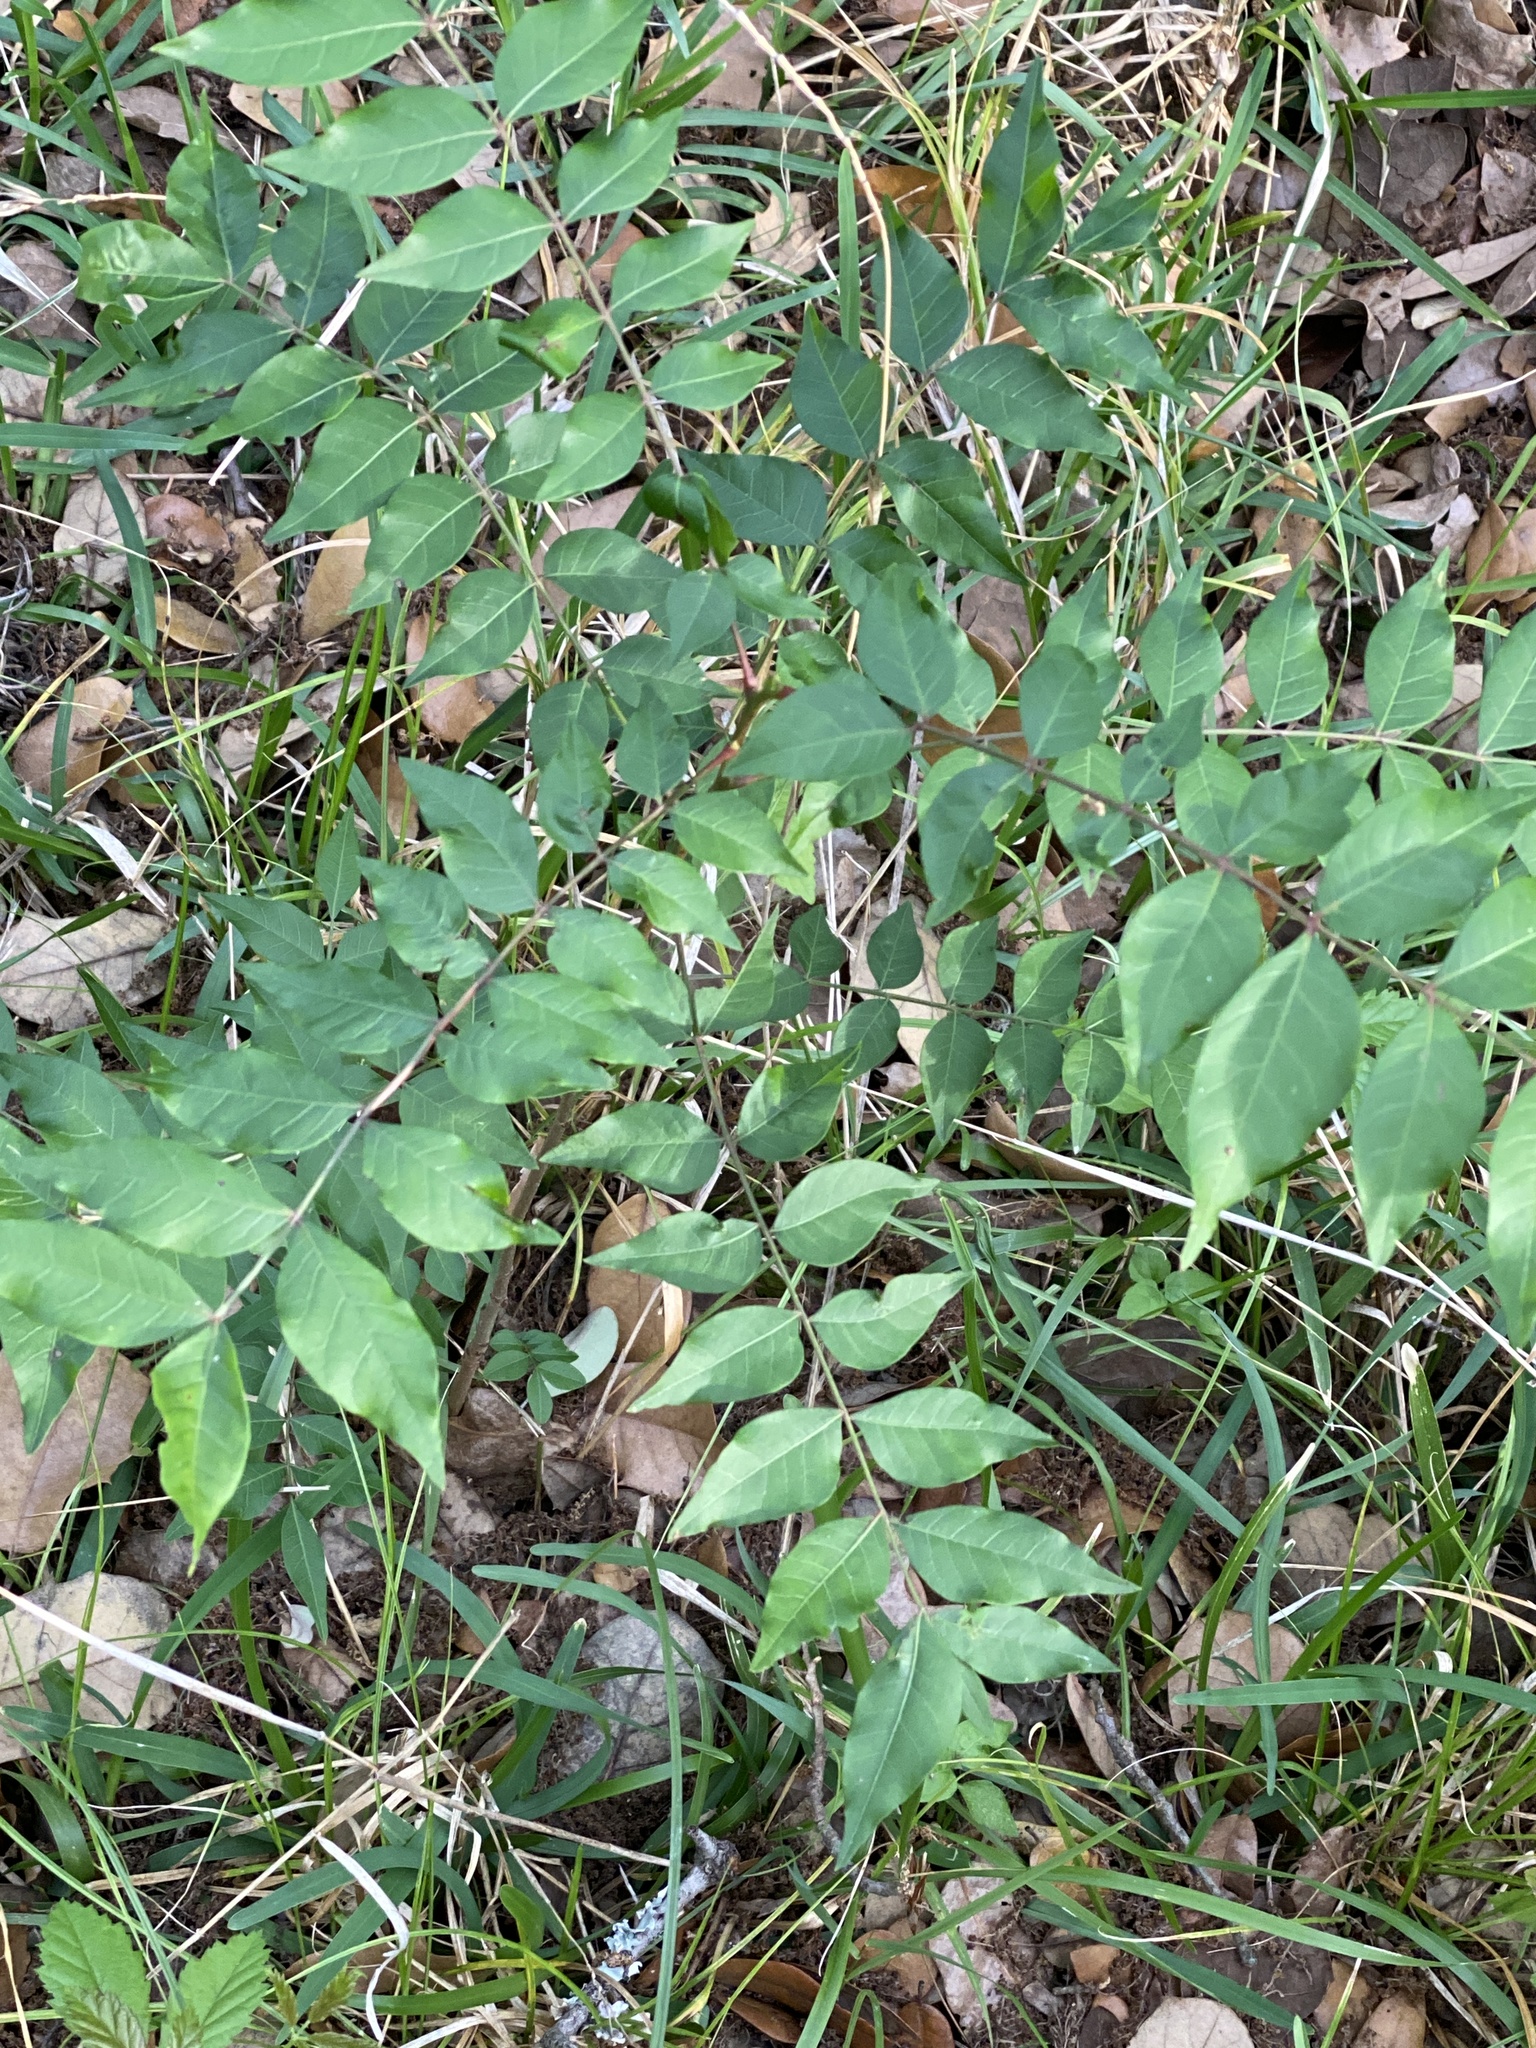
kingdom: Plantae
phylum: Tracheophyta
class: Magnoliopsida
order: Sapindales
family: Anacardiaceae
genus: Pistacia
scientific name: Pistacia chinensis
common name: Chinese pistache
